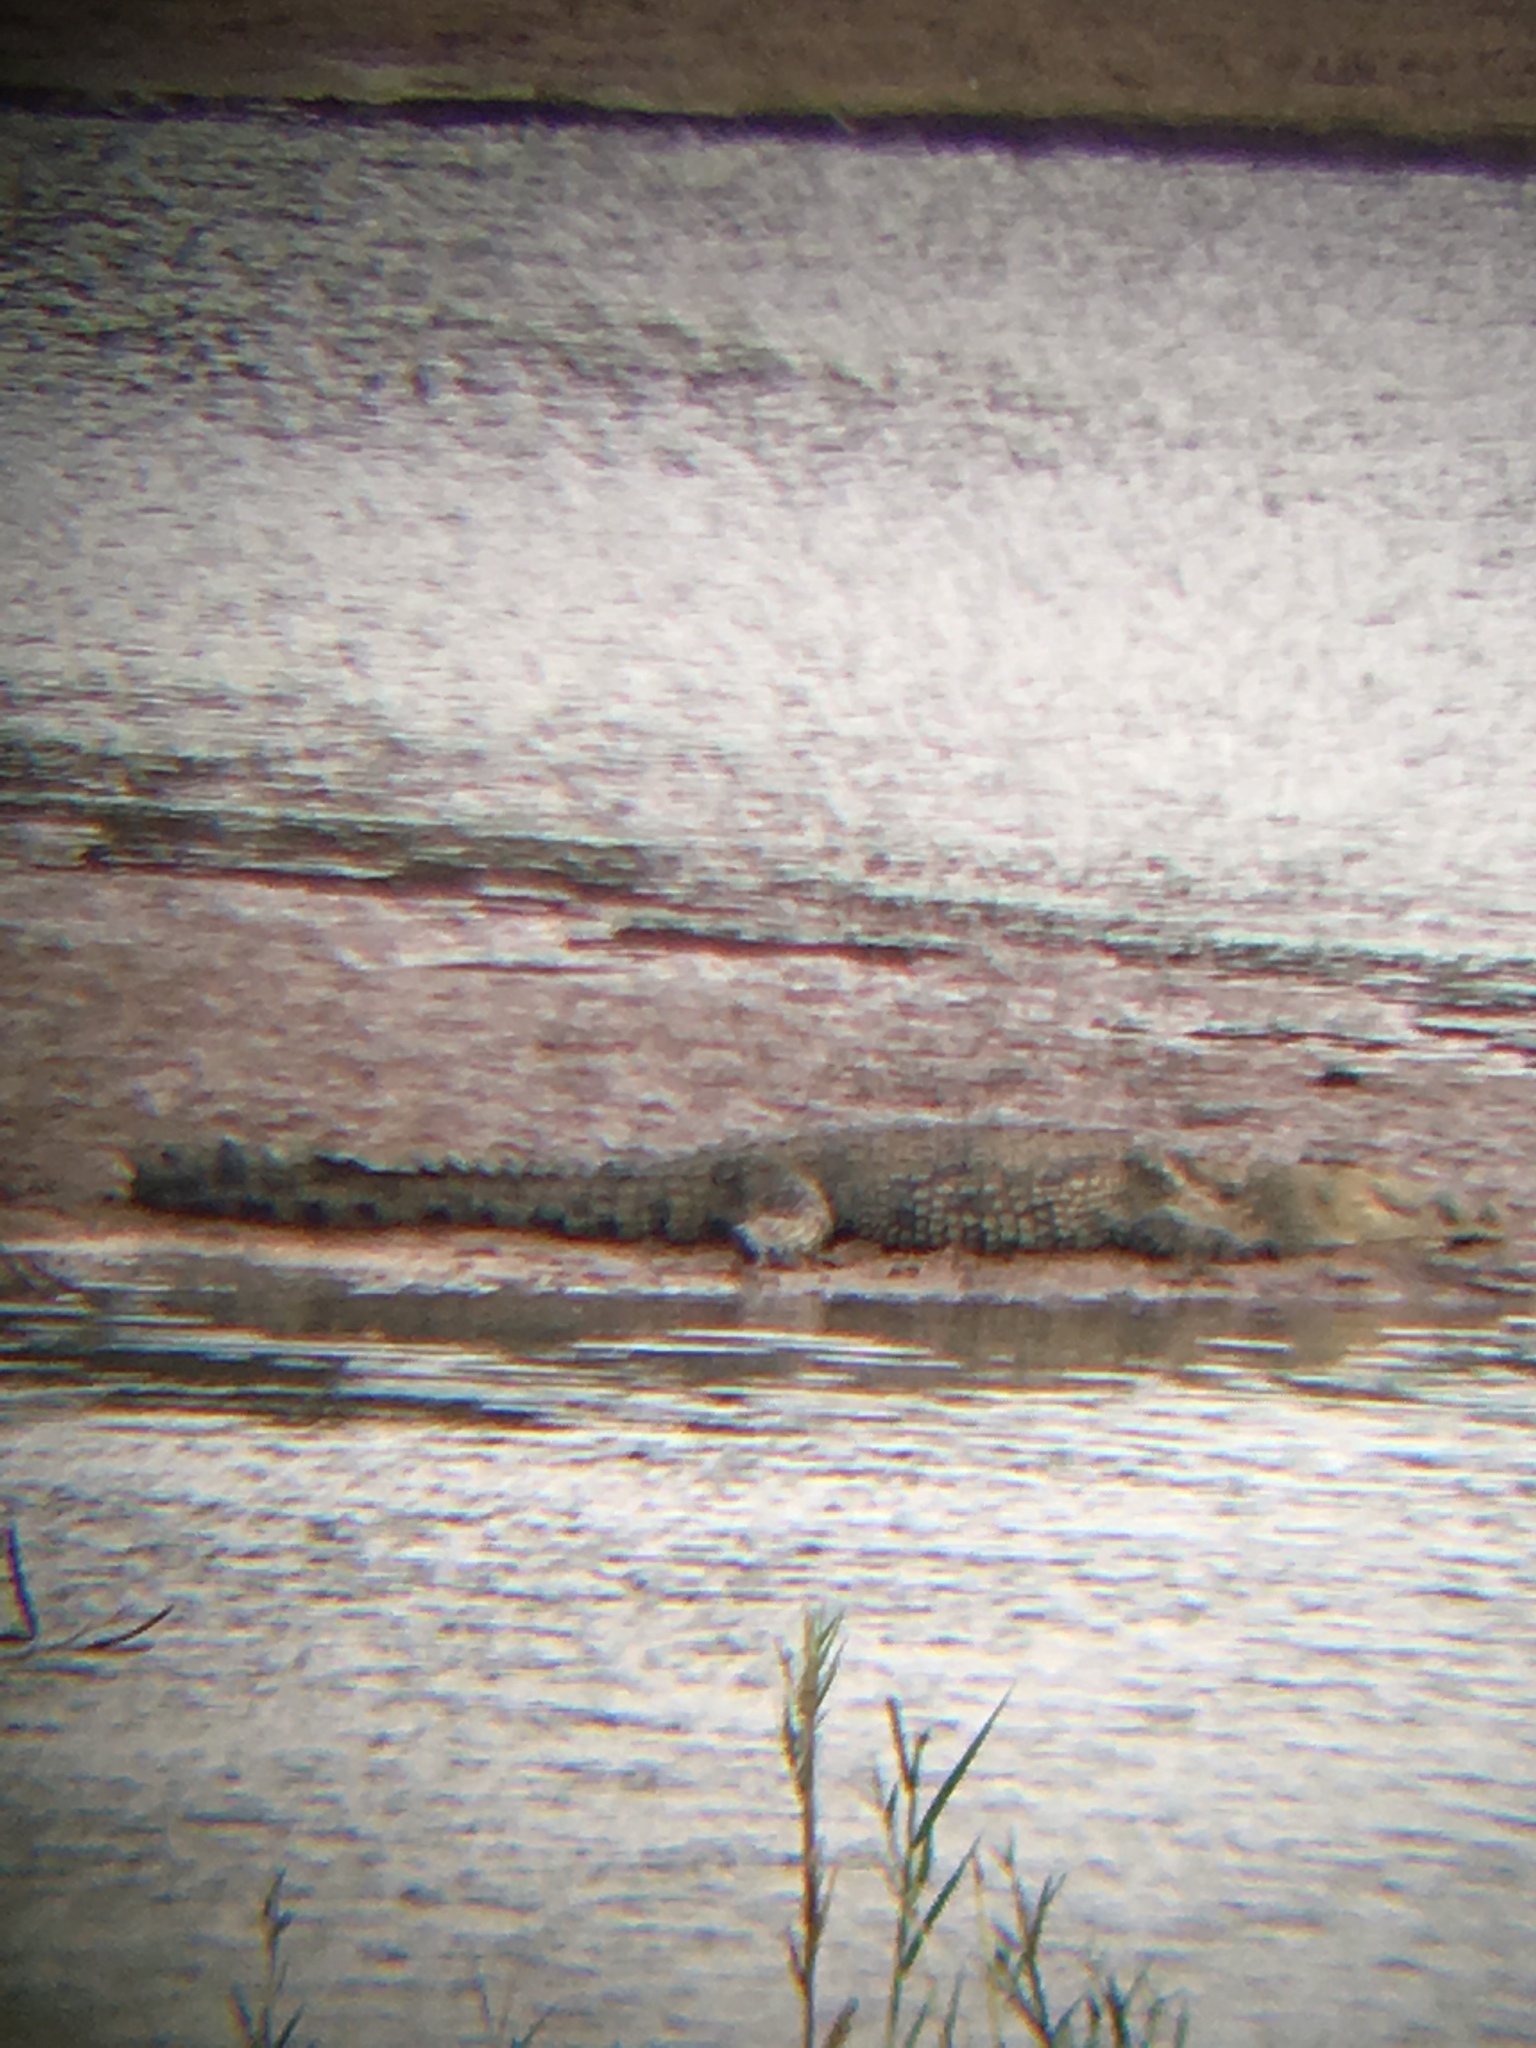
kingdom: Animalia
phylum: Chordata
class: Crocodylia
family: Crocodylidae
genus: Crocodylus
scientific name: Crocodylus niloticus
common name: Nile crocodile
